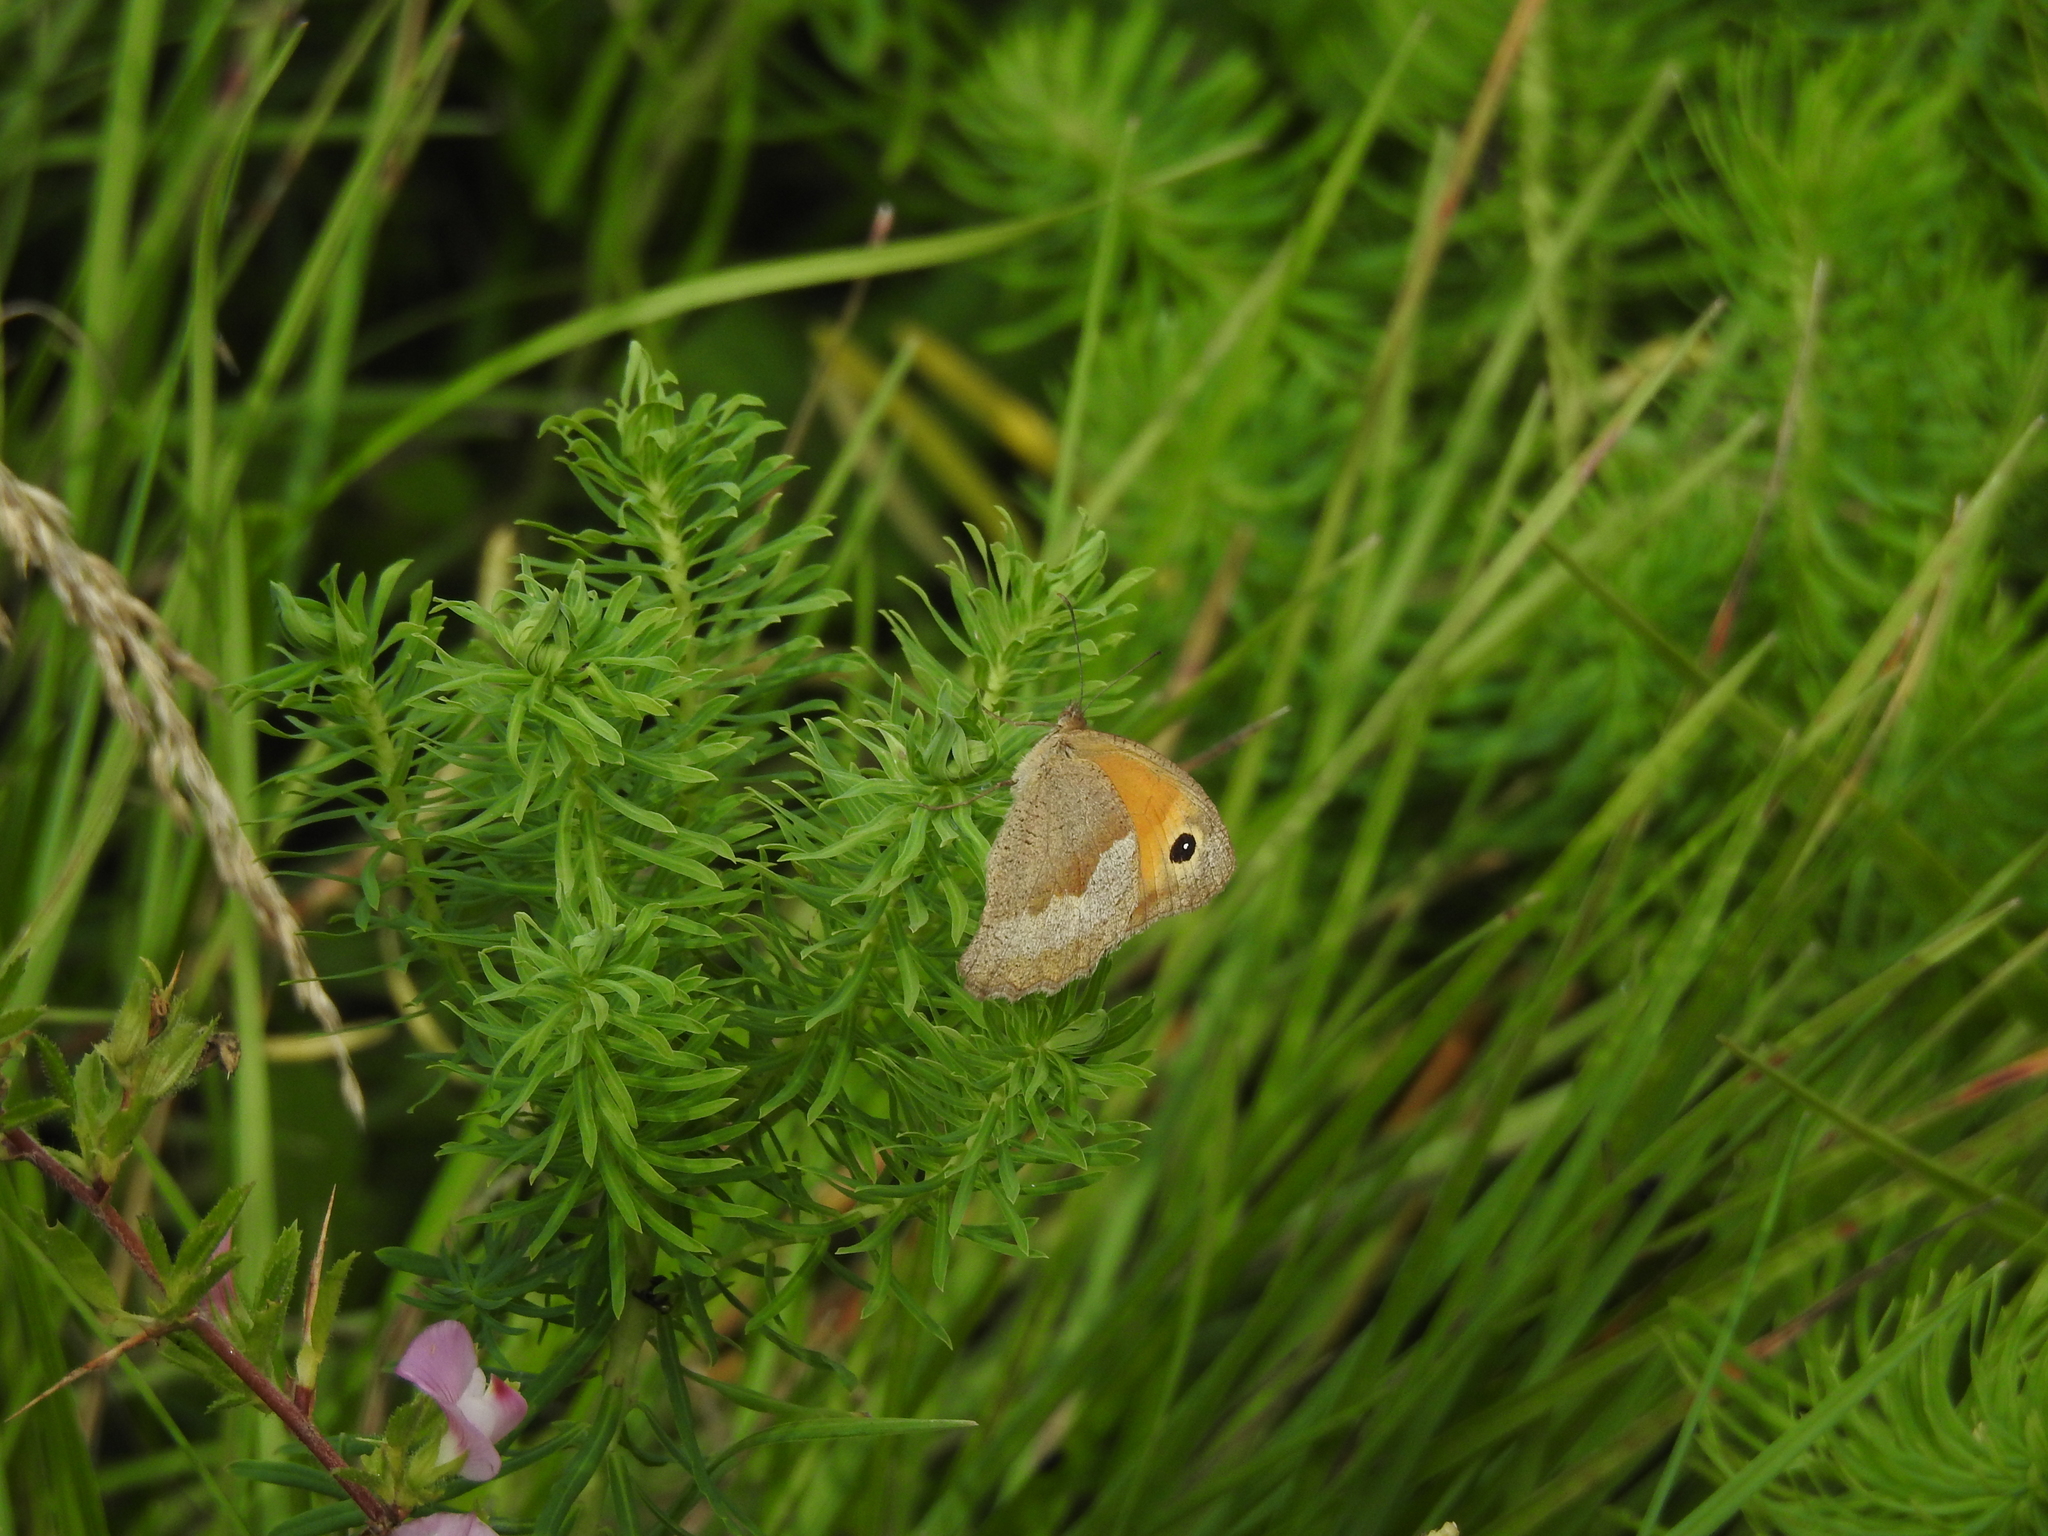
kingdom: Animalia
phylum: Arthropoda
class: Insecta
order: Lepidoptera
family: Nymphalidae
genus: Maniola
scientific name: Maniola jurtina
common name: Meadow brown
